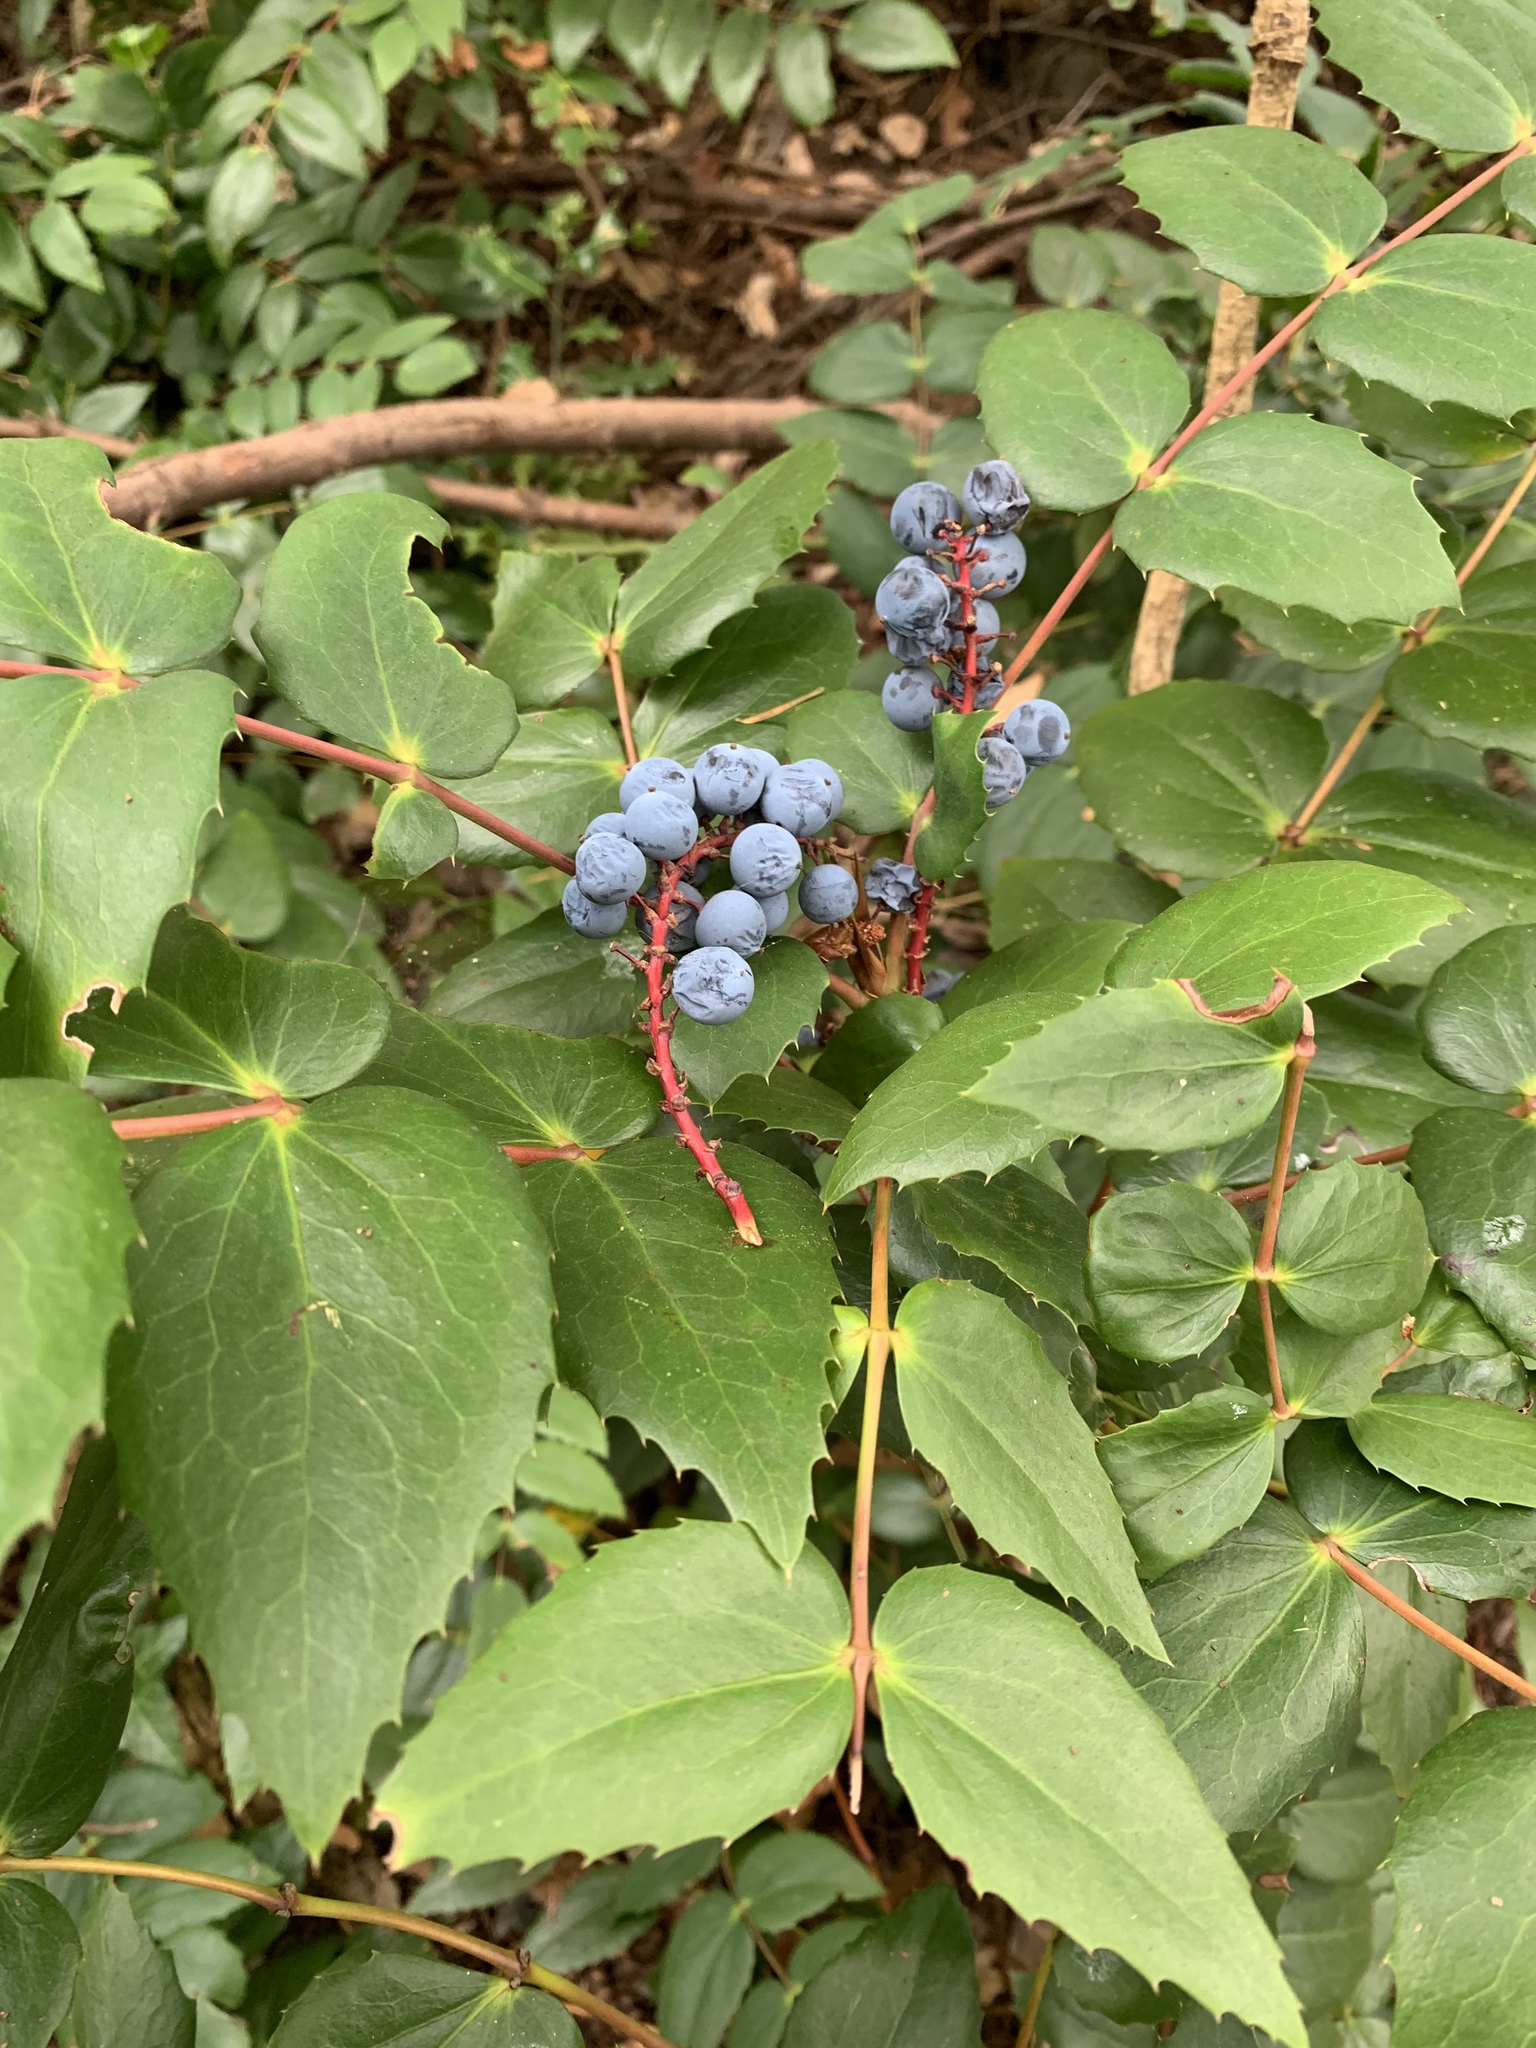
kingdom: Plantae
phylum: Tracheophyta
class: Magnoliopsida
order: Ranunculales
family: Berberidaceae
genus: Mahonia
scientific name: Mahonia nervosa
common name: Cascade oregon-grape
